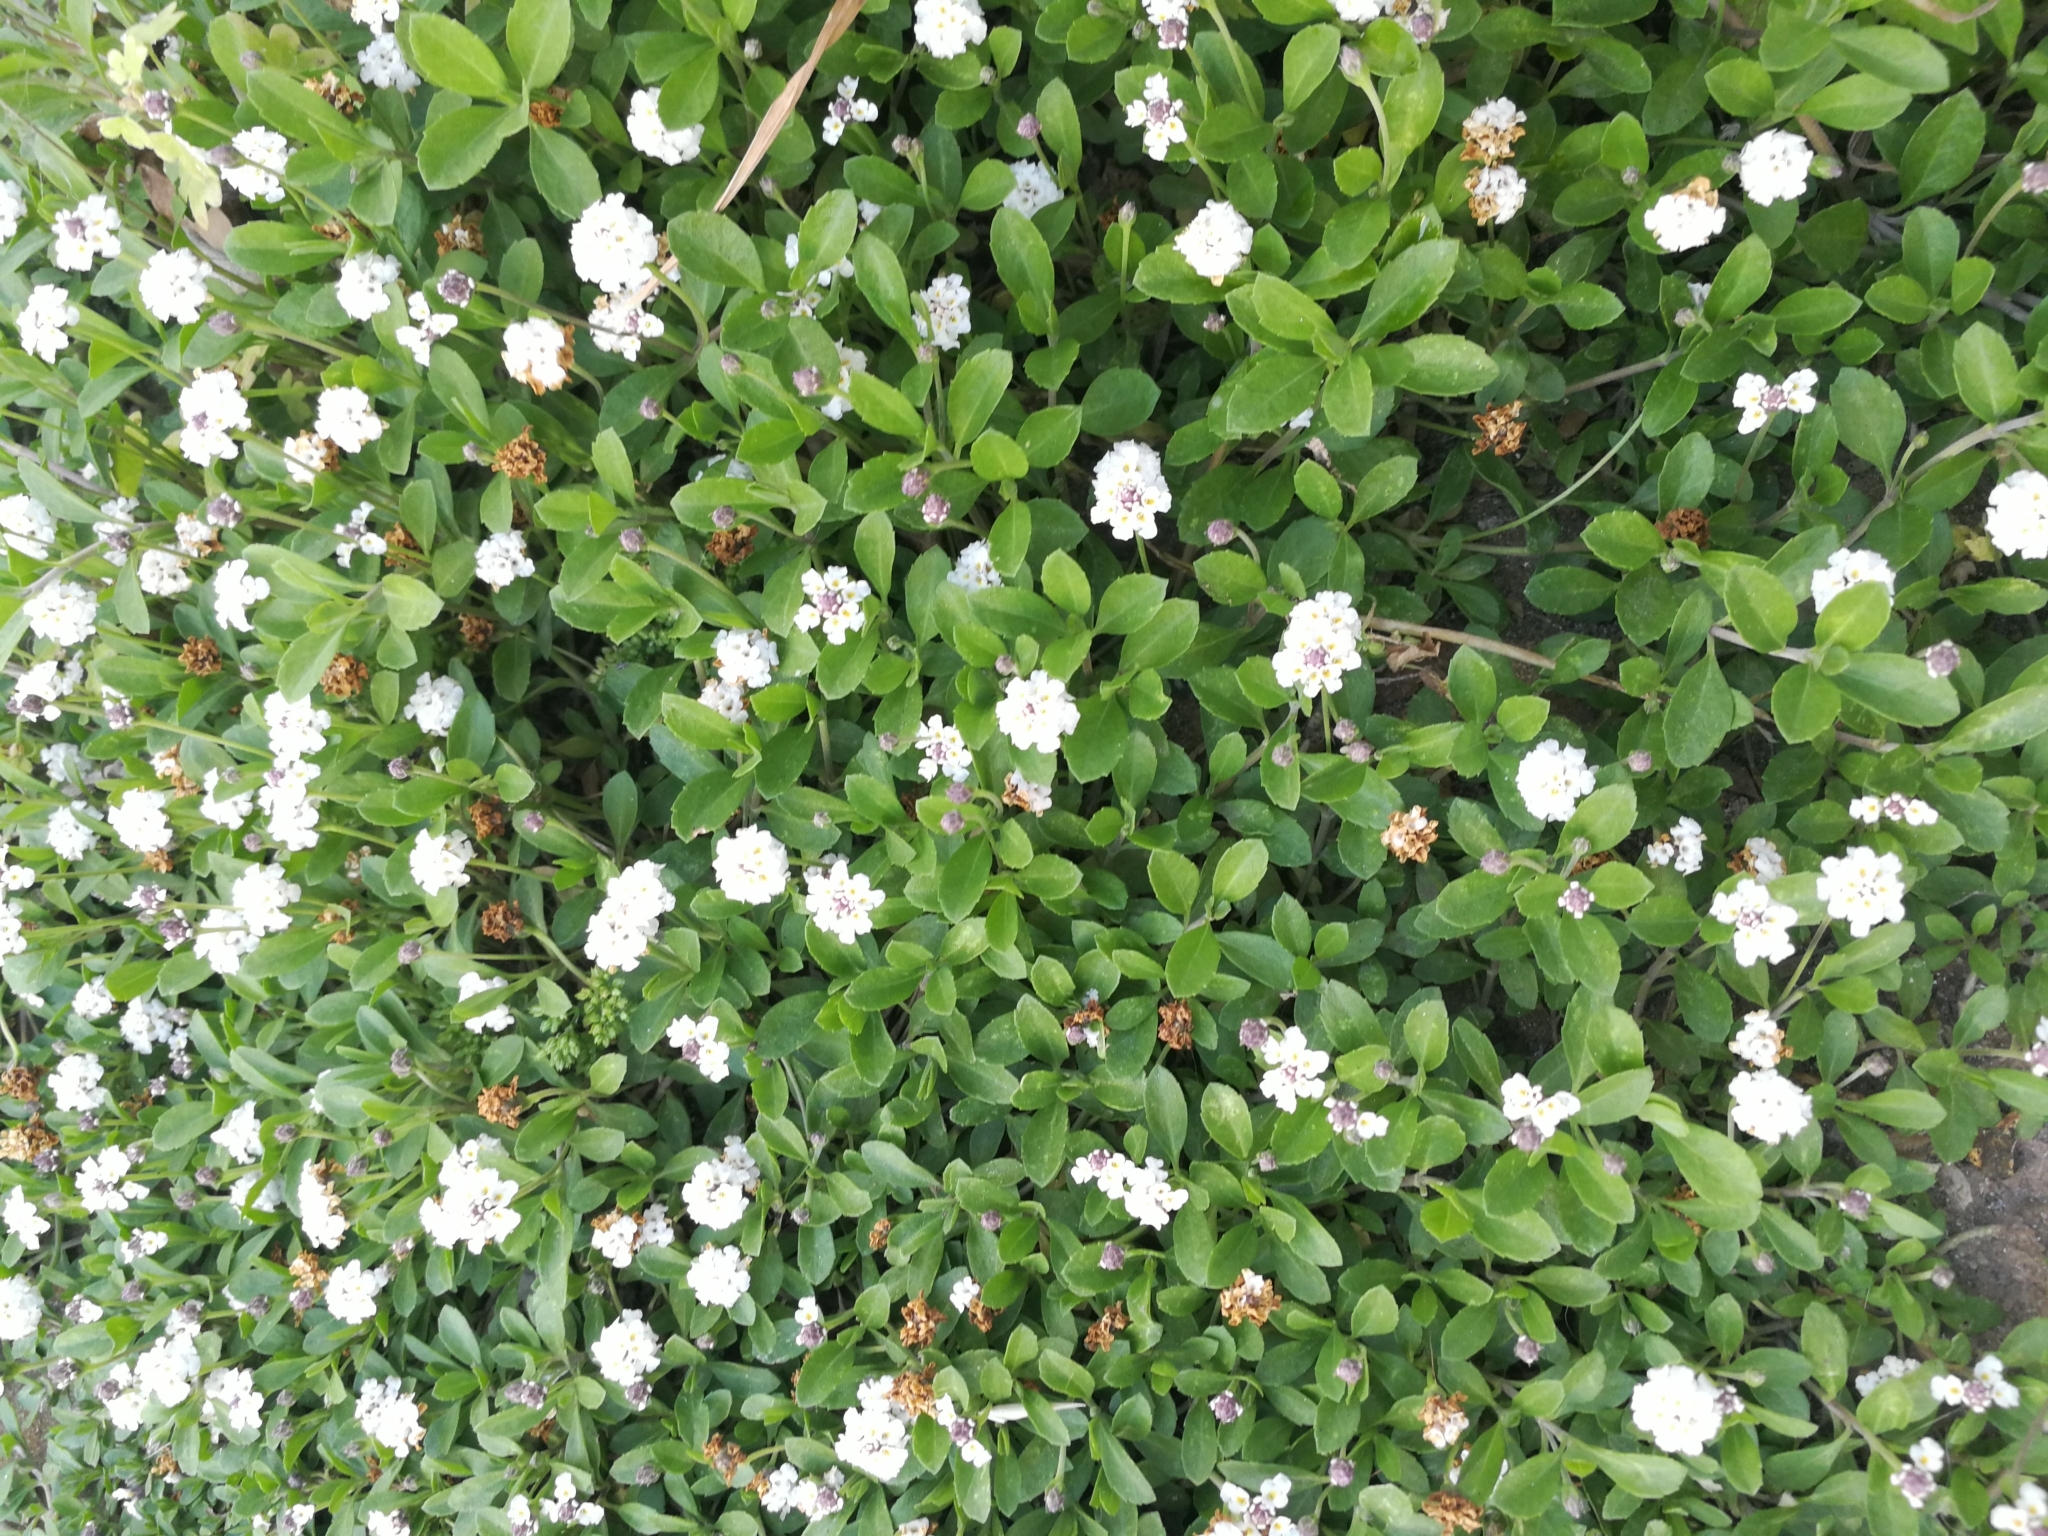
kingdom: Plantae
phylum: Tracheophyta
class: Magnoliopsida
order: Lamiales
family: Verbenaceae
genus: Phyla
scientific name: Phyla nodiflora
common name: Frogfruit
